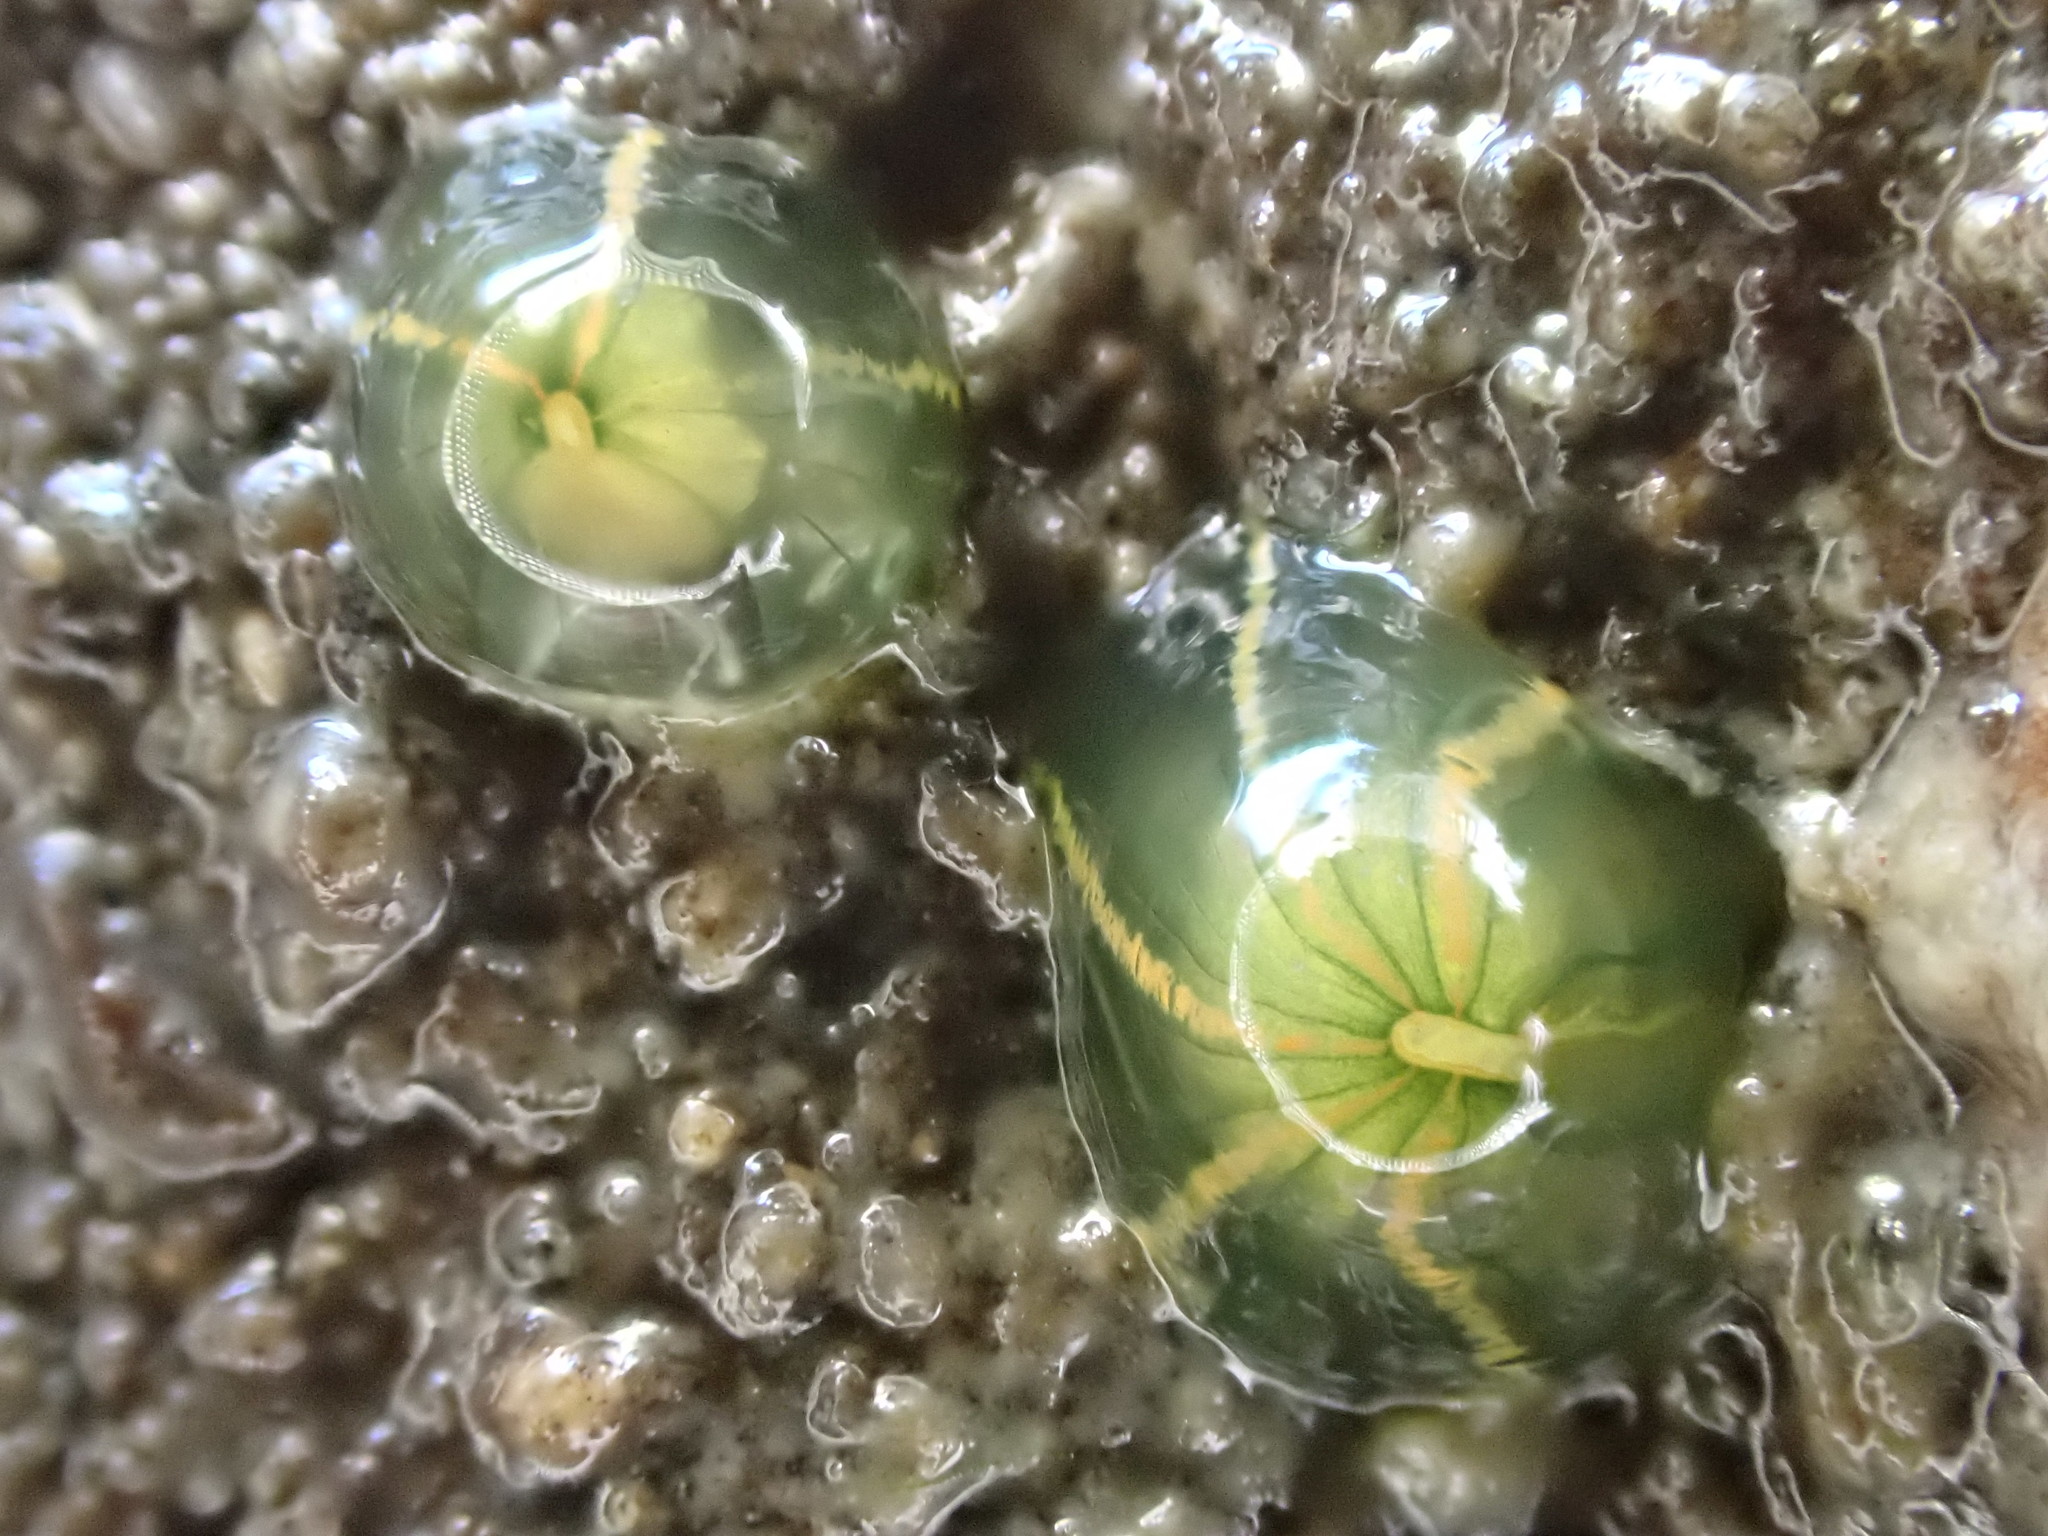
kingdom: Animalia
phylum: Cnidaria
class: Anthozoa
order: Actiniaria
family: Diadumenidae
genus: Diadumene
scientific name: Diadumene lineata
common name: Orange-striped anemone
